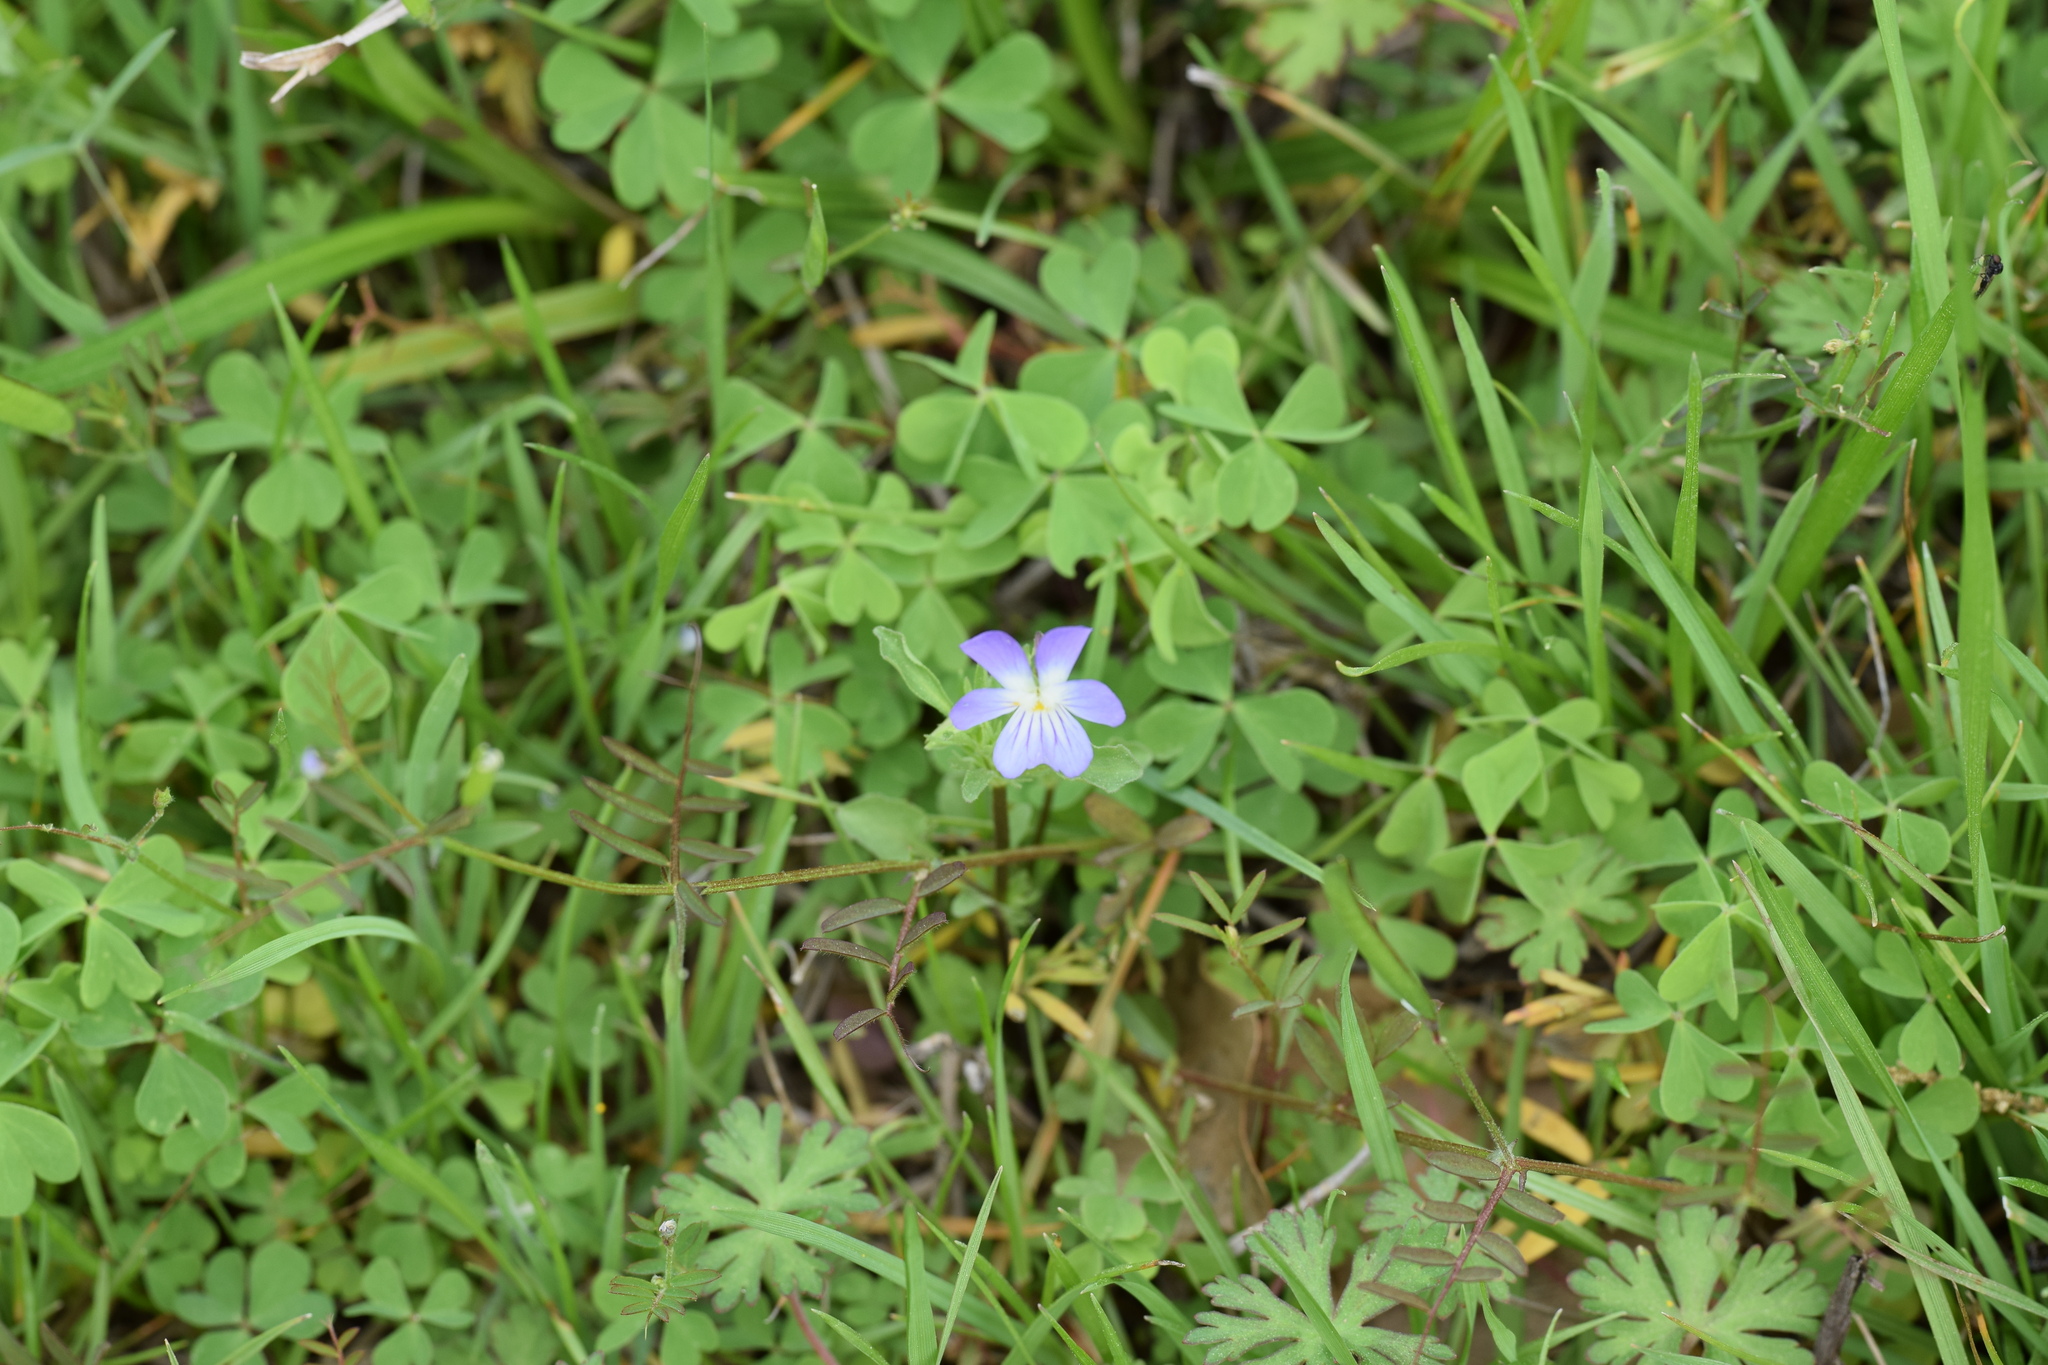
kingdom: Plantae
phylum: Tracheophyta
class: Magnoliopsida
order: Malpighiales
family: Violaceae
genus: Viola
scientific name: Viola rafinesquei
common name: American field pansy
